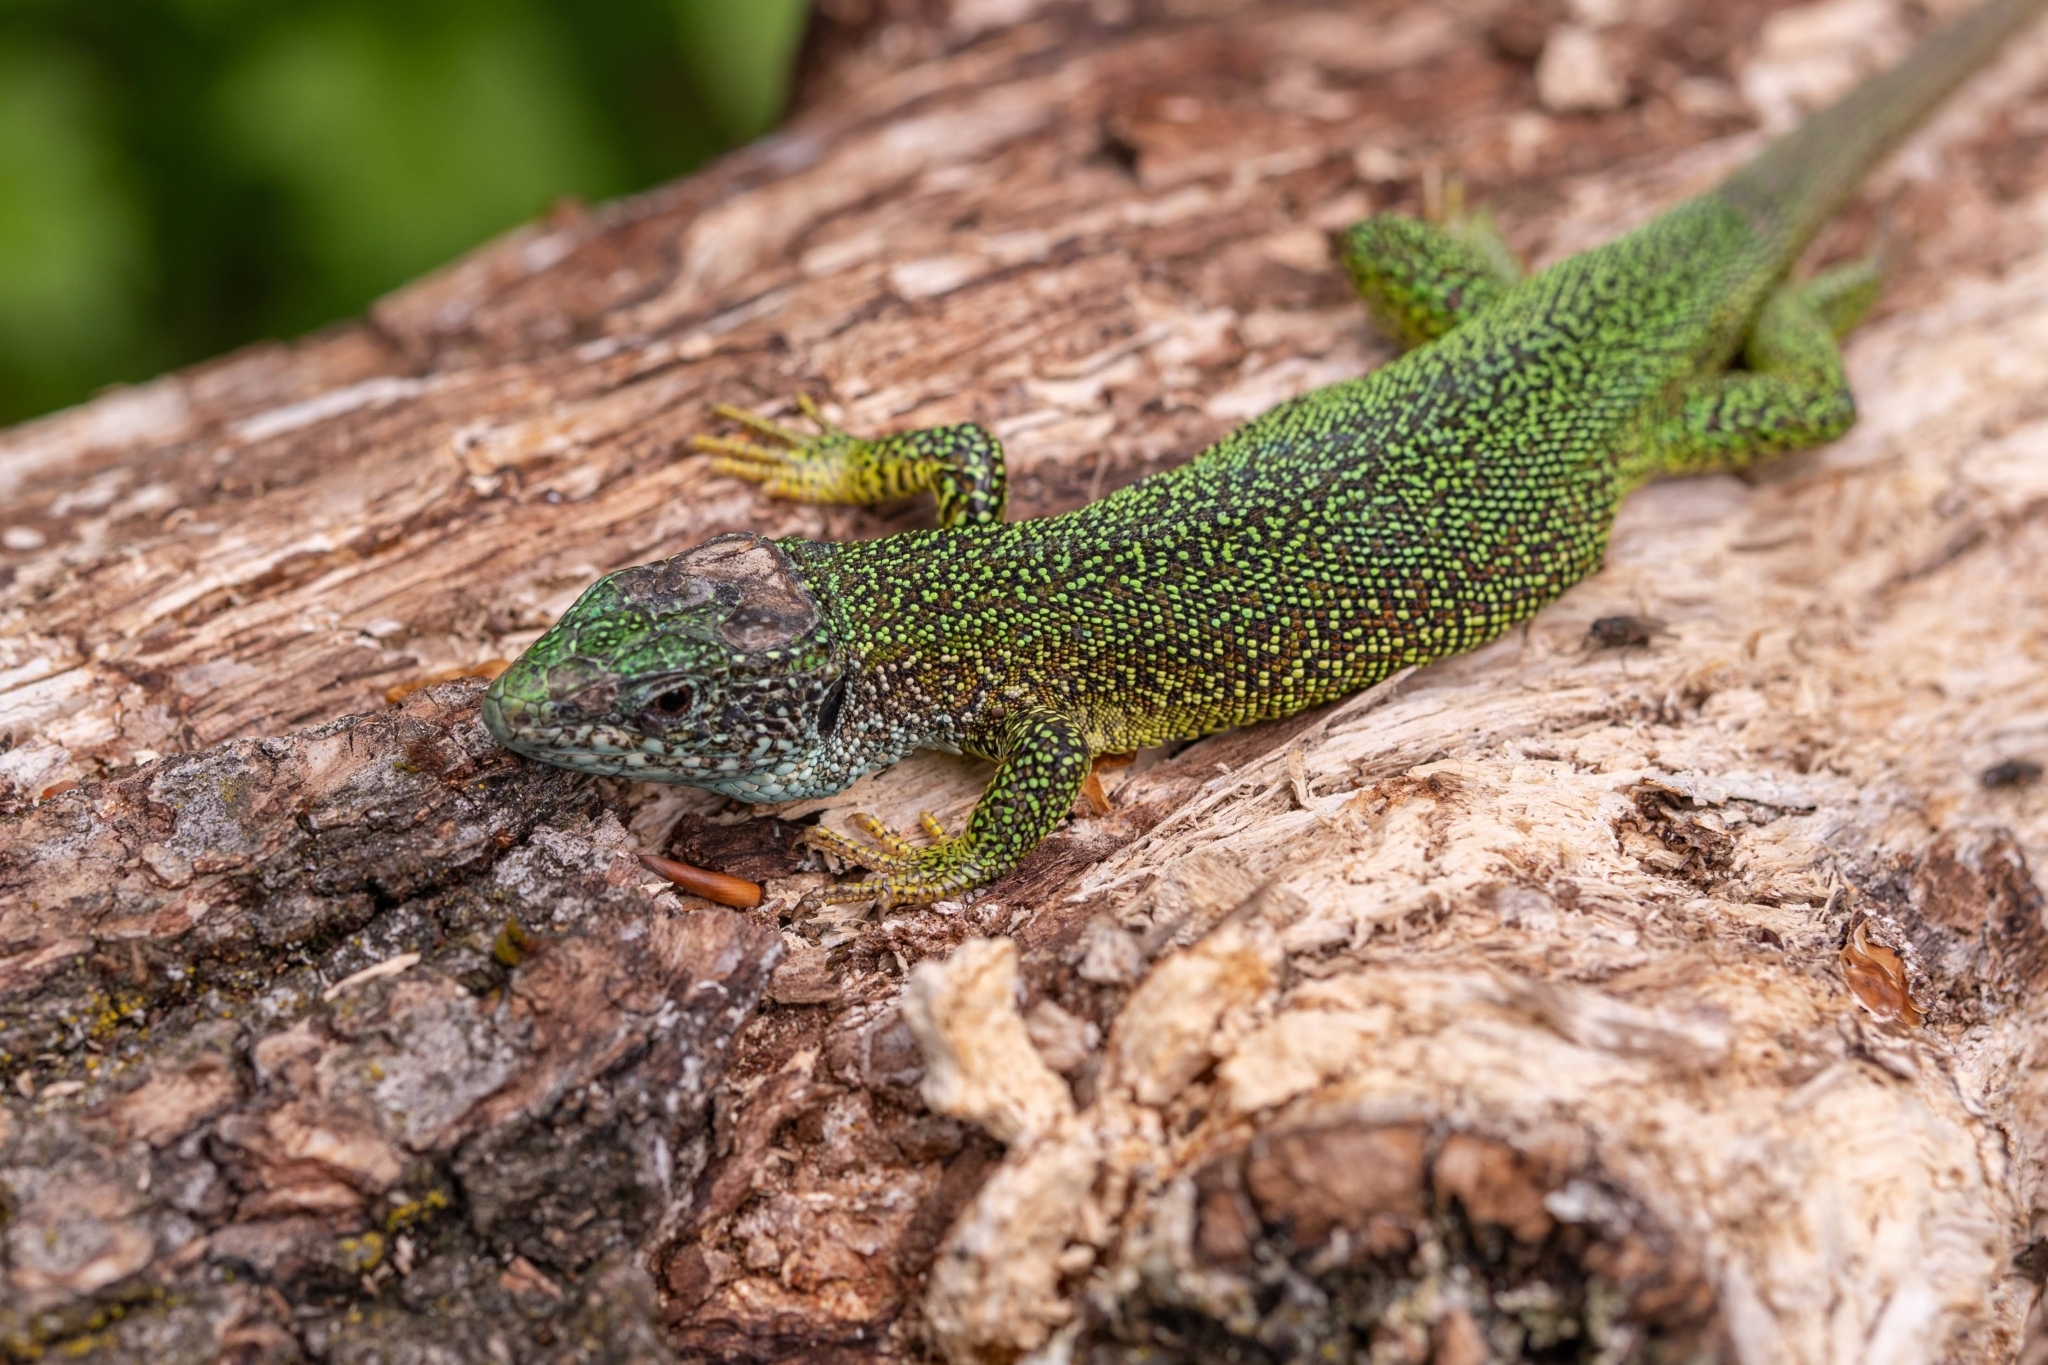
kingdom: Animalia
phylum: Chordata
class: Squamata
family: Lacertidae
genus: Lacerta
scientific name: Lacerta viridis
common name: European green lizard
